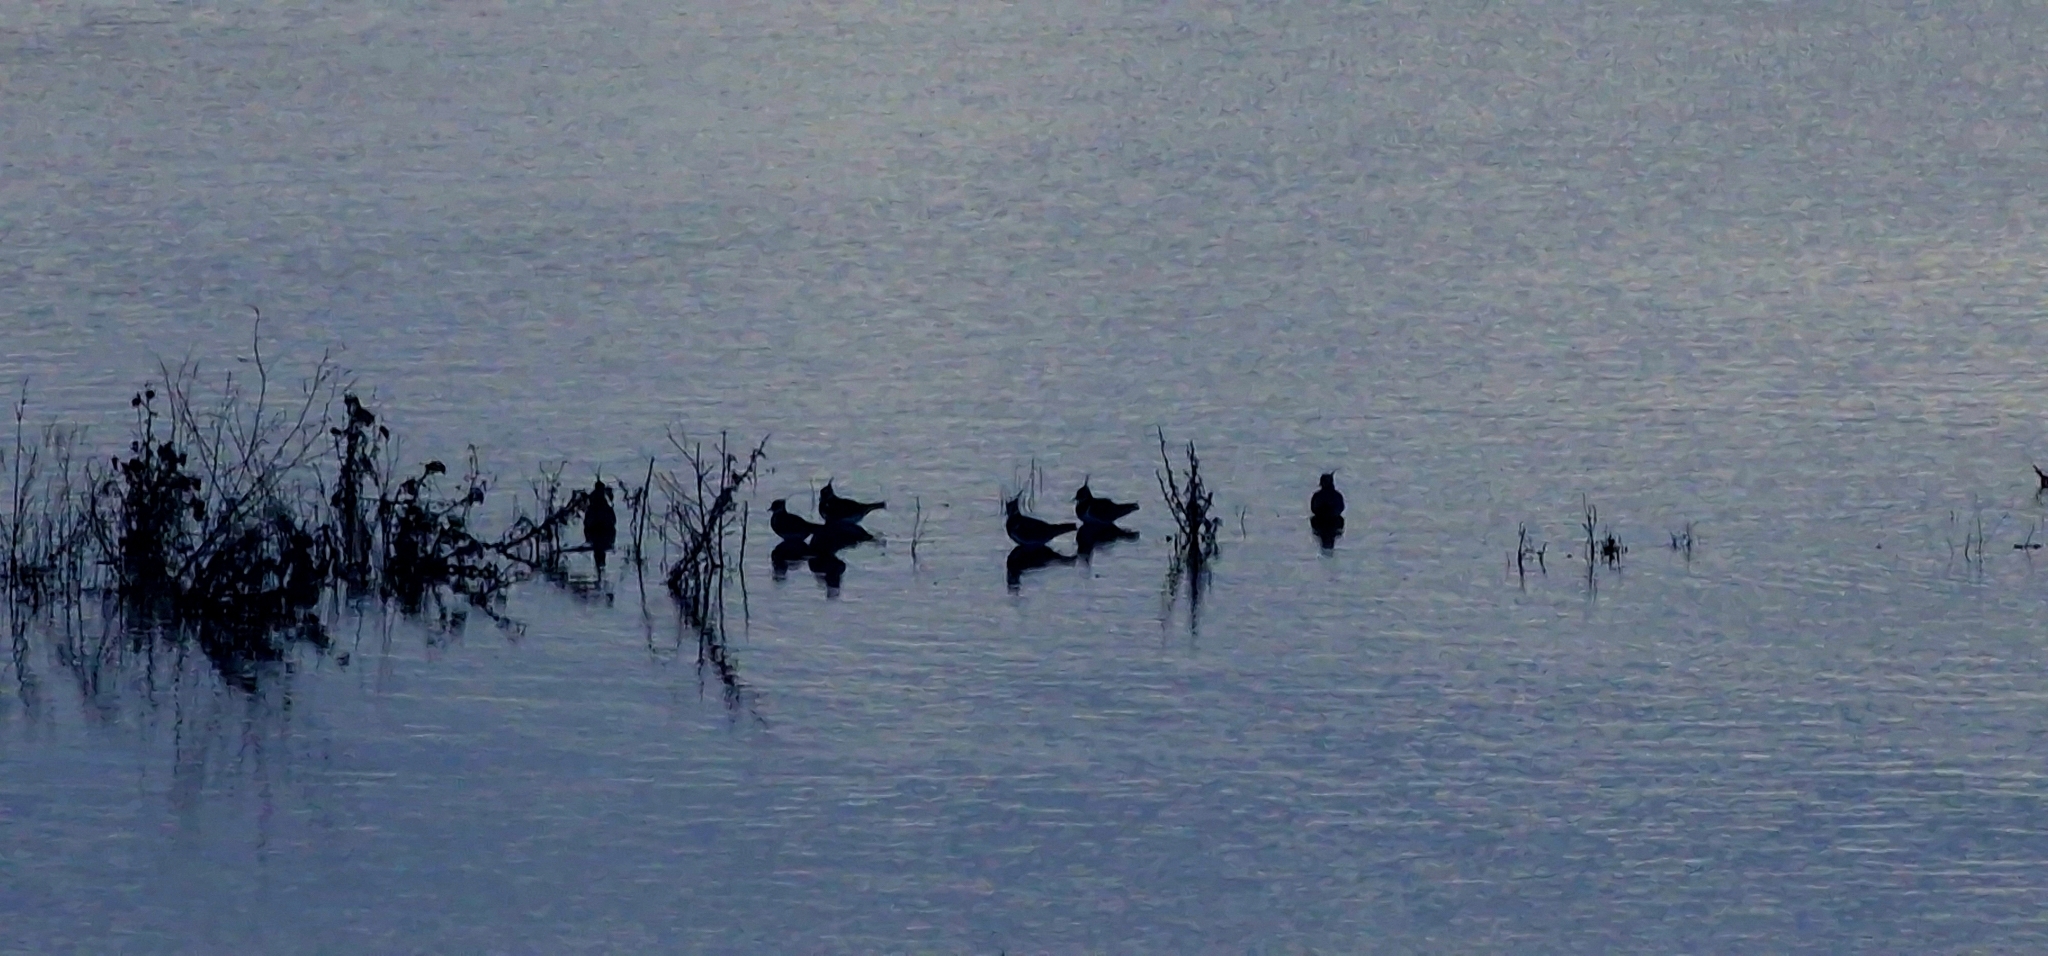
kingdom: Animalia
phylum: Chordata
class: Aves
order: Charadriiformes
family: Charadriidae
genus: Vanellus
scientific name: Vanellus vanellus
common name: Northern lapwing
